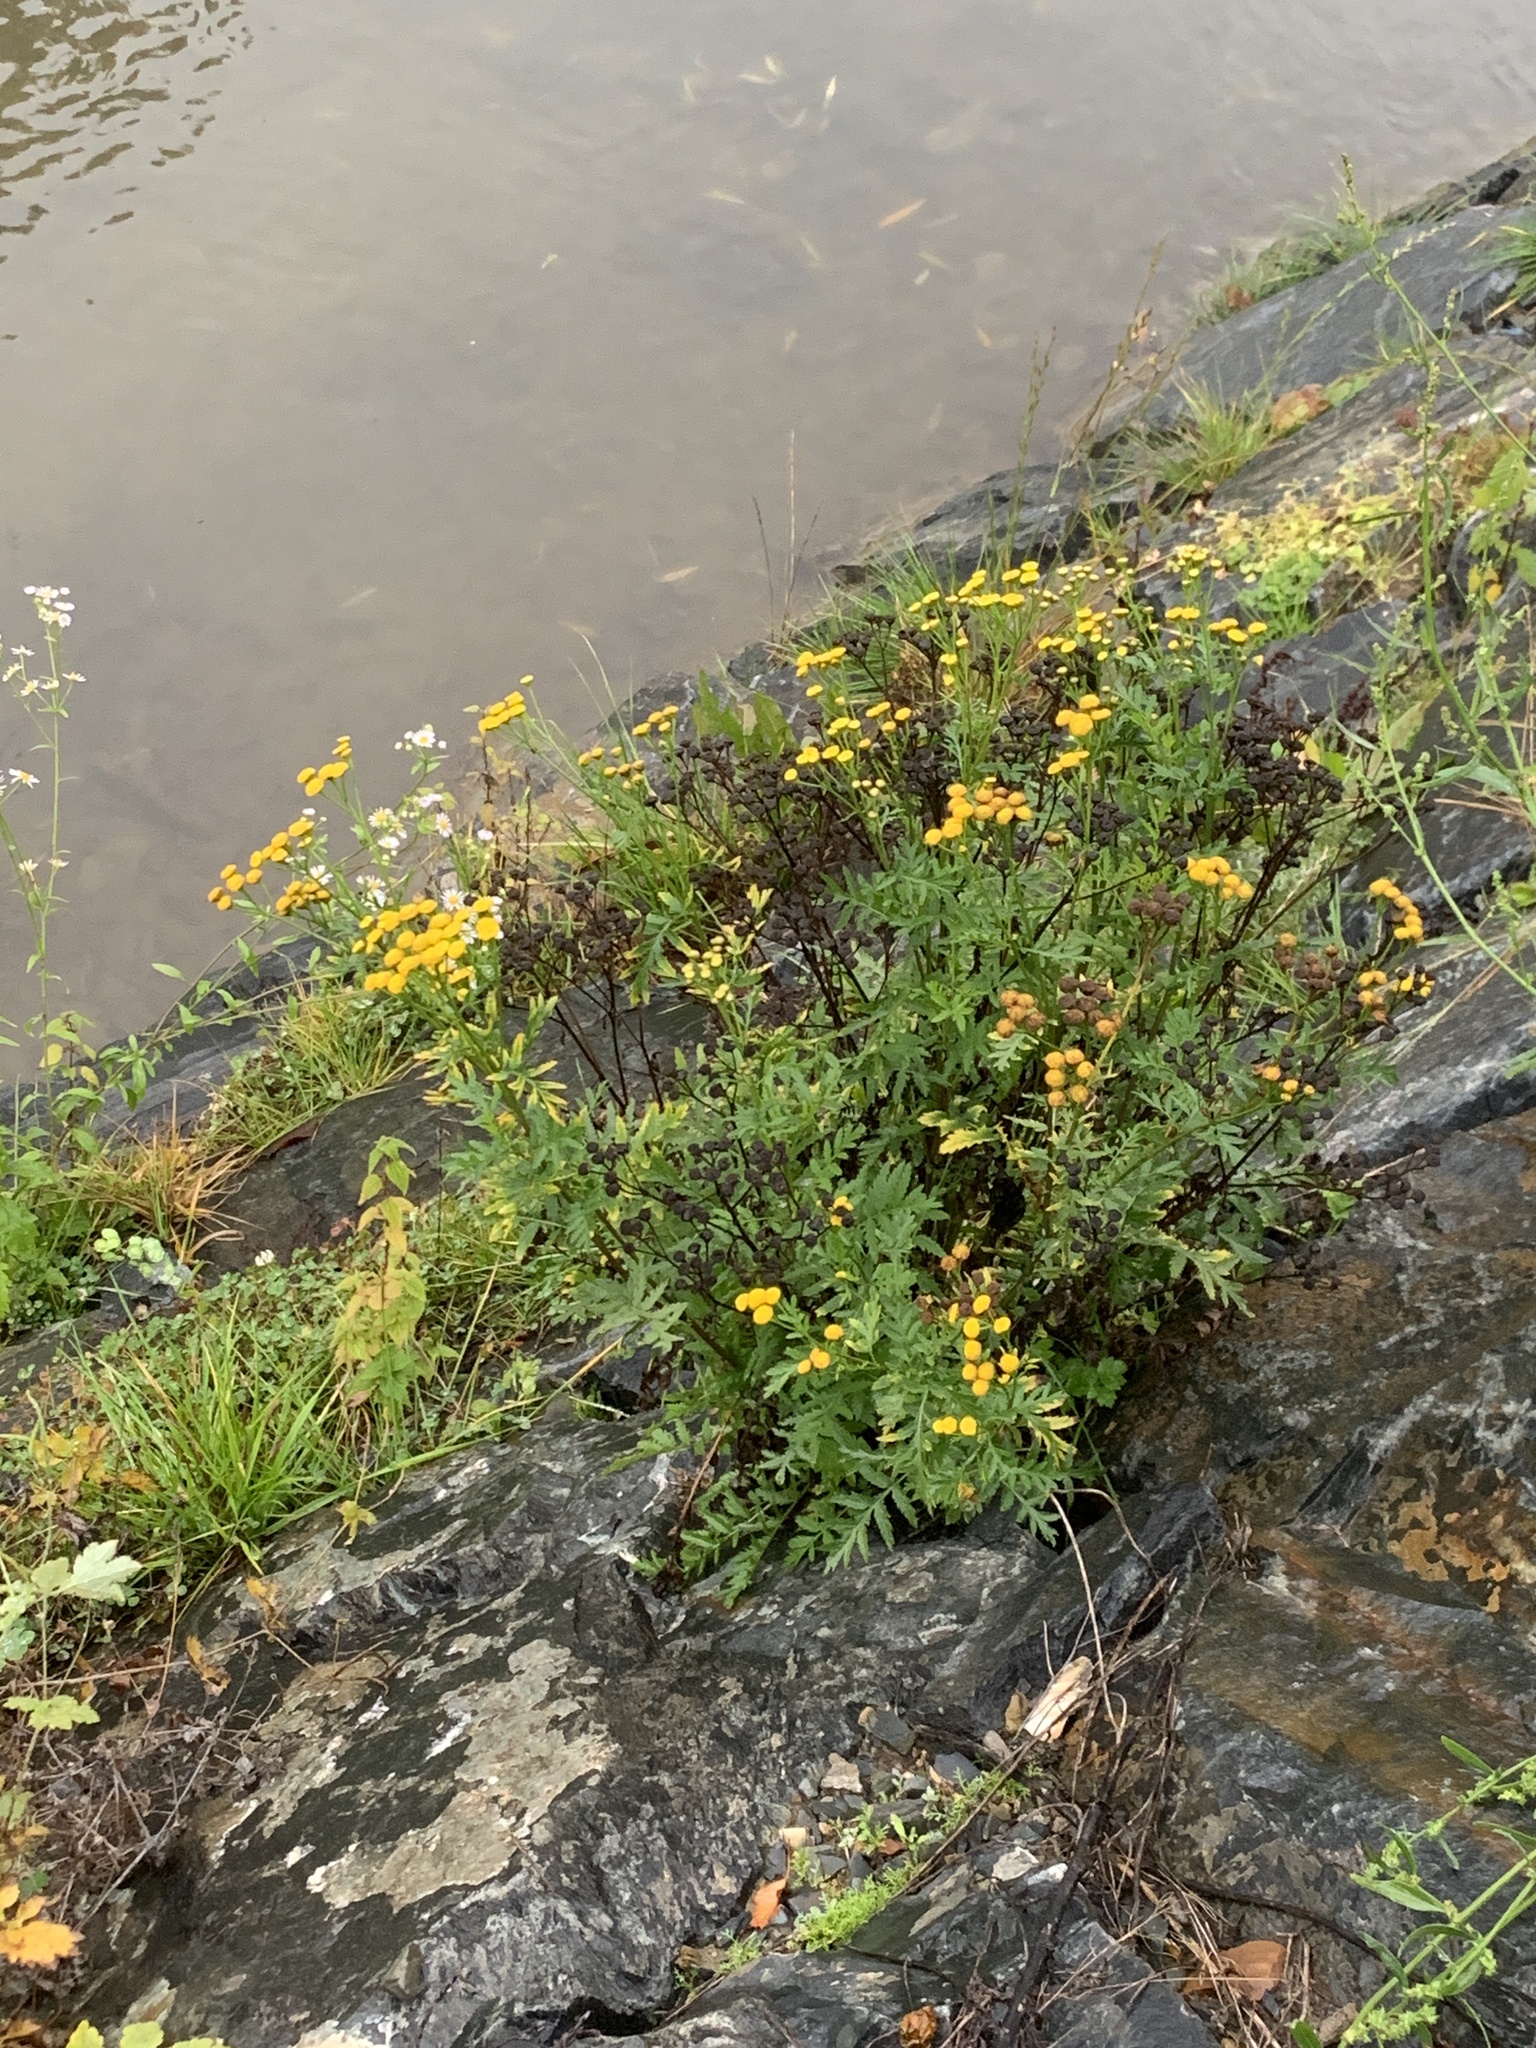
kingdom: Plantae
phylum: Tracheophyta
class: Magnoliopsida
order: Asterales
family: Asteraceae
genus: Tanacetum
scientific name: Tanacetum vulgare
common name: Common tansy
